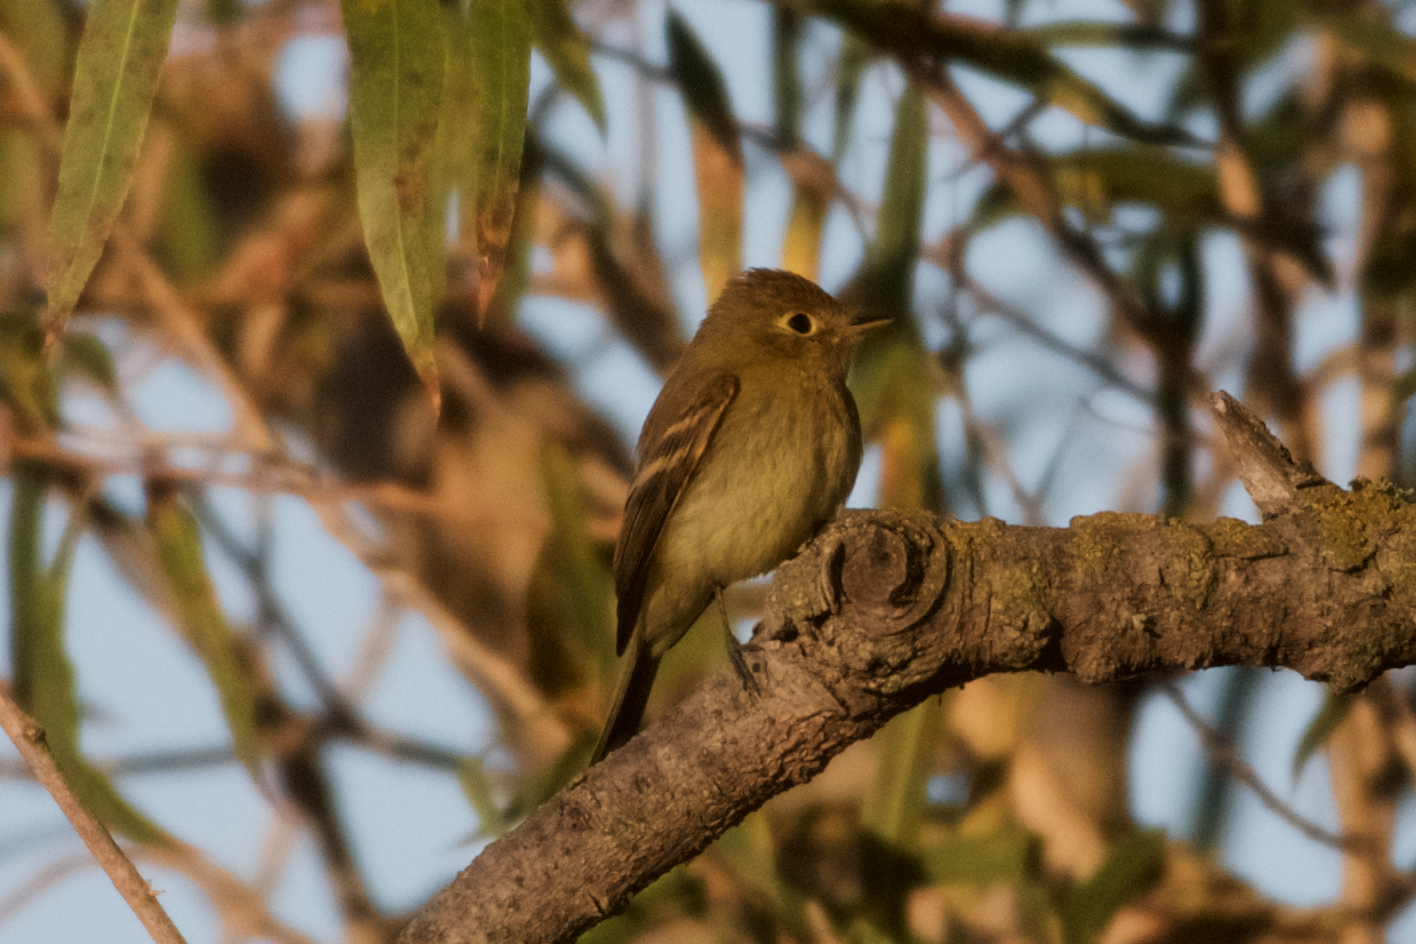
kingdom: Animalia
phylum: Chordata
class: Aves
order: Passeriformes
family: Tyrannidae
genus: Empidonax
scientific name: Empidonax difficilis
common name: Pacific-slope flycatcher
